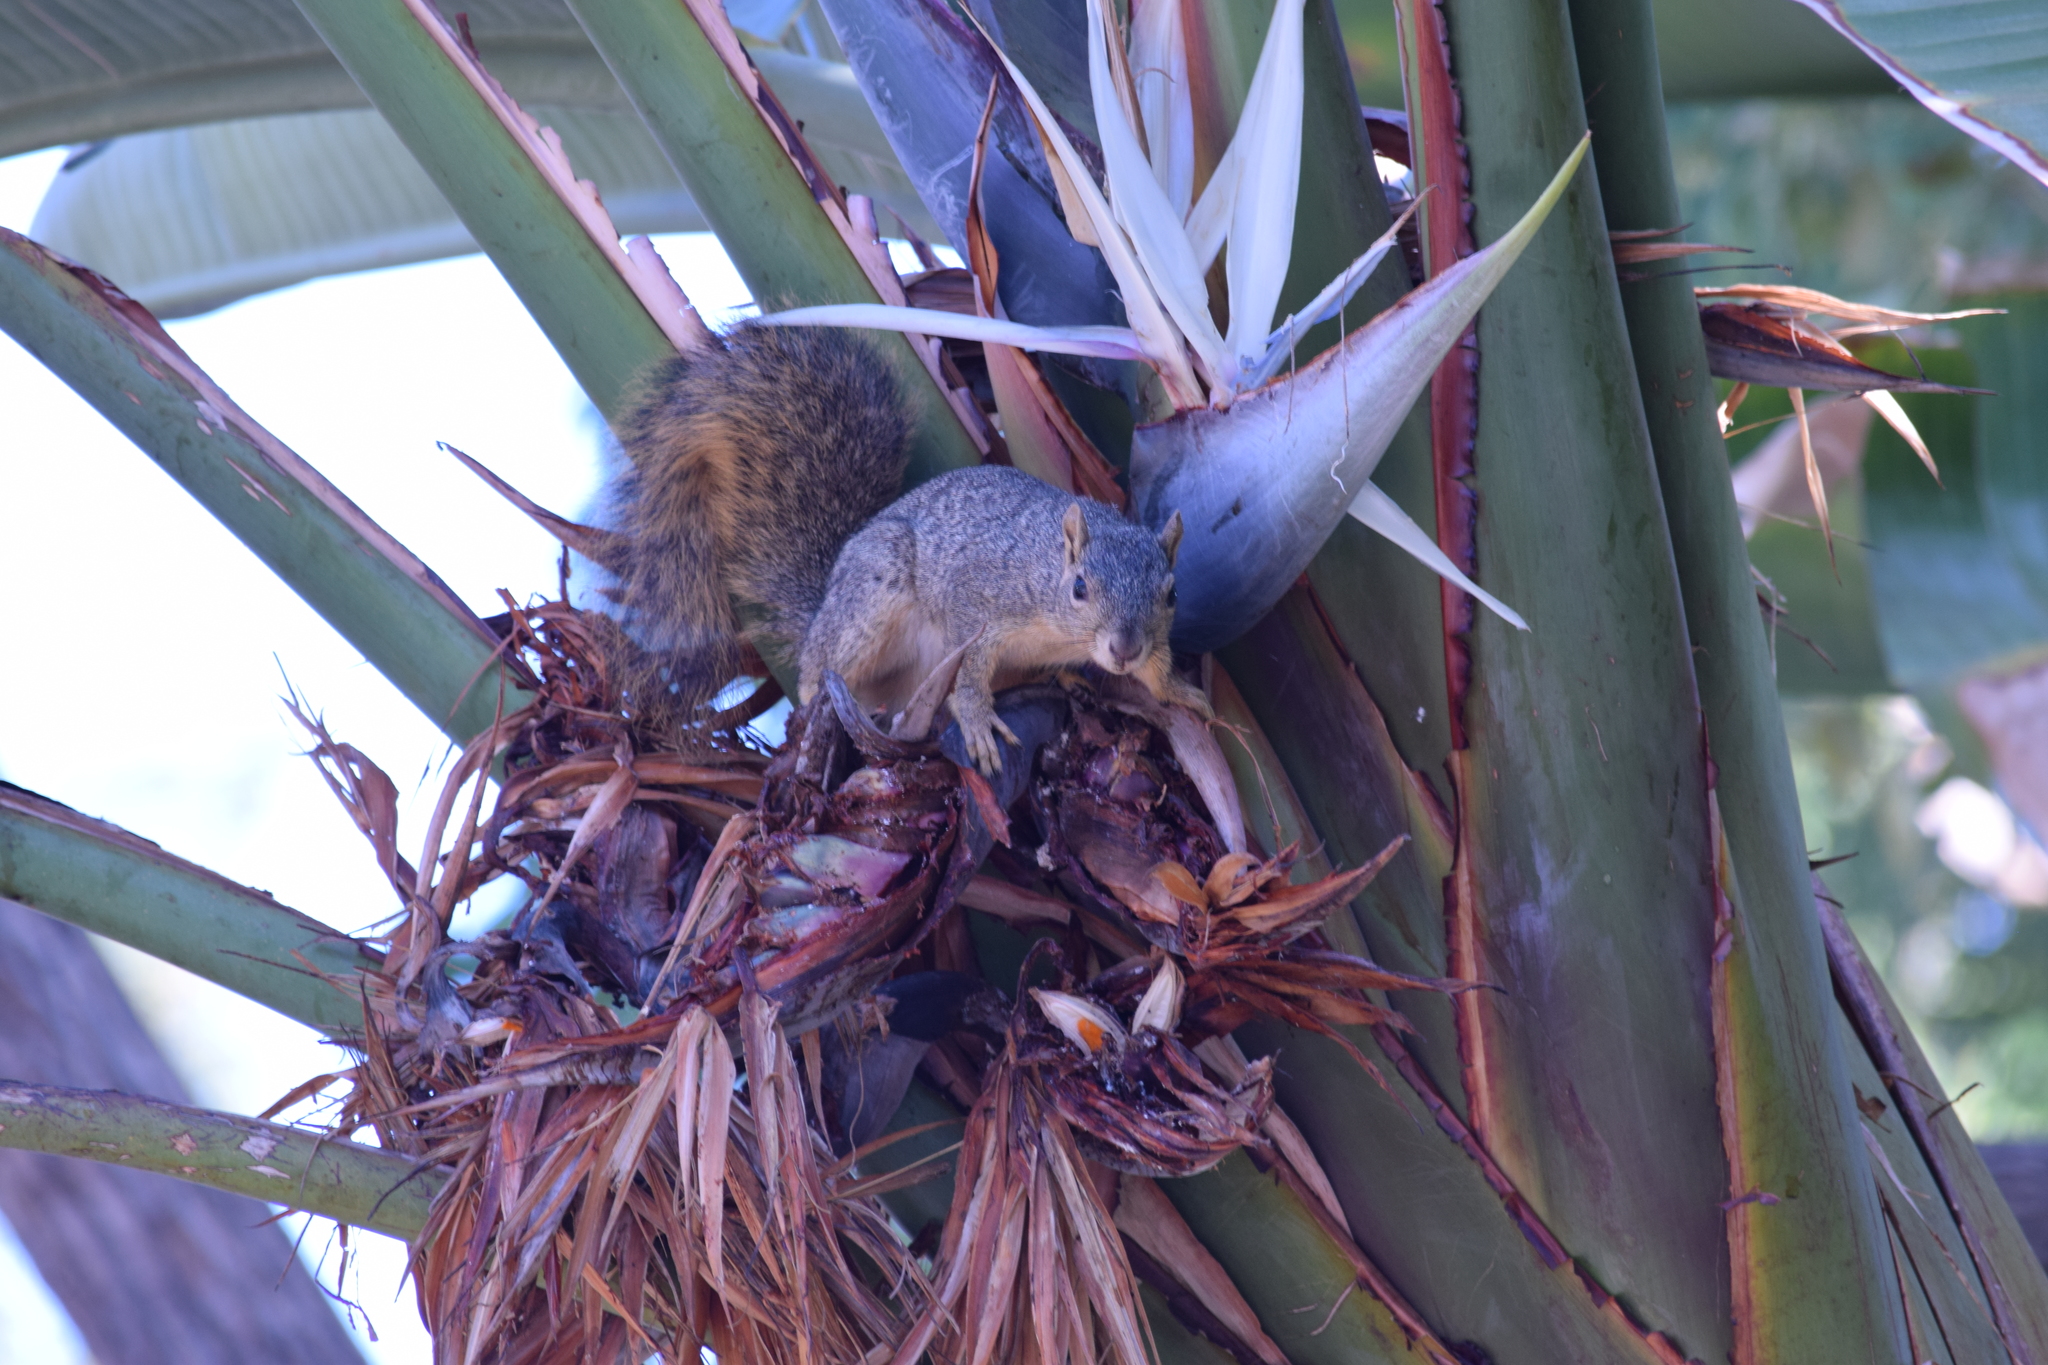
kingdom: Animalia
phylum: Chordata
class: Mammalia
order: Rodentia
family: Sciuridae
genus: Sciurus
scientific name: Sciurus niger
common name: Fox squirrel
